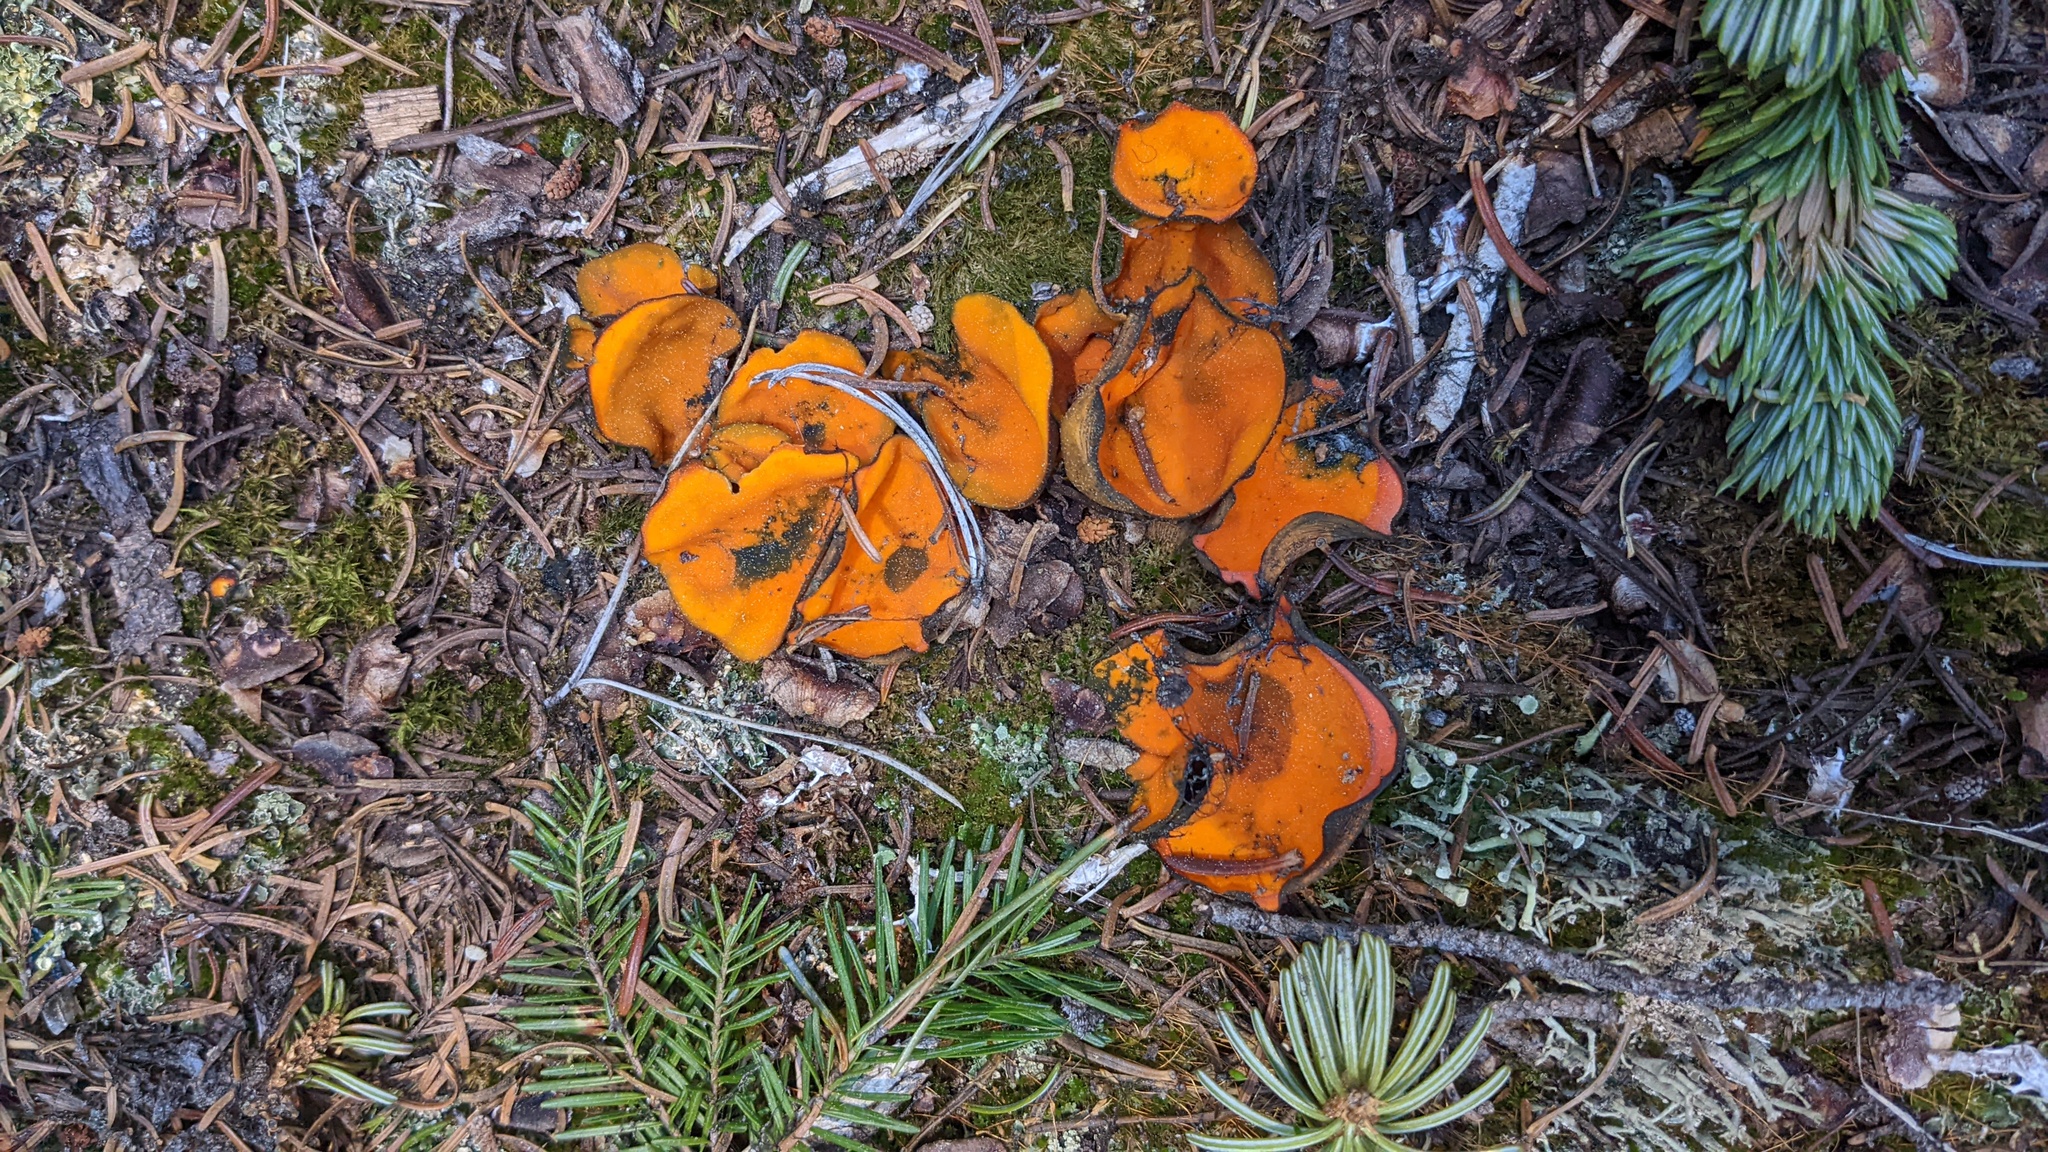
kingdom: Fungi
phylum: Ascomycota
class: Pezizomycetes
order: Pezizales
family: Caloscyphaceae
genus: Caloscypha
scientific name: Caloscypha fulgens
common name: Golden cup
